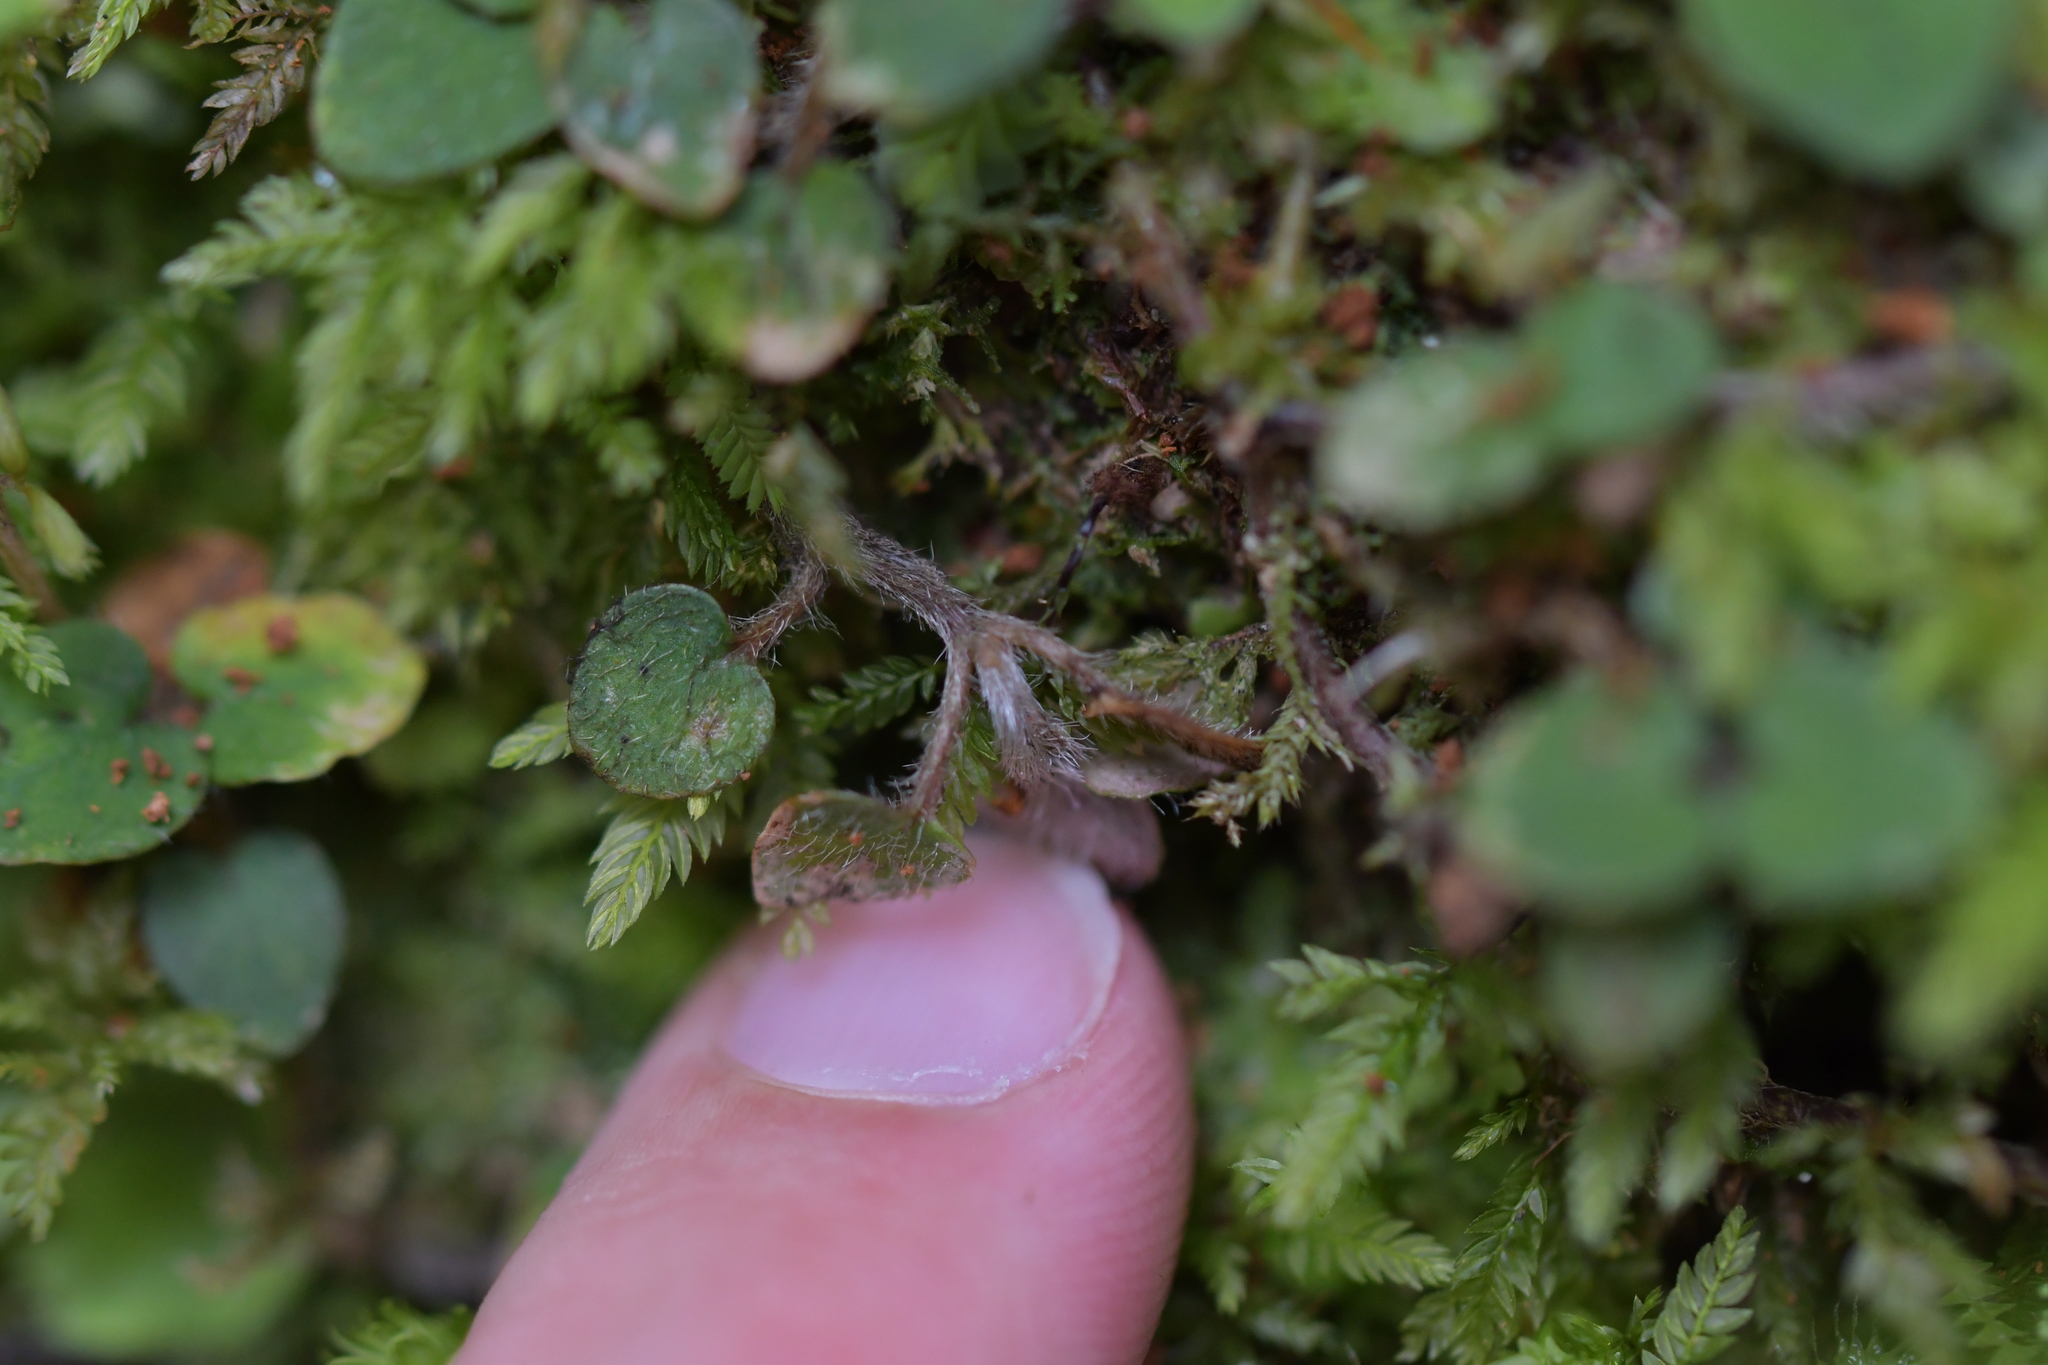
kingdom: Plantae
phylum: Tracheophyta
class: Magnoliopsida
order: Gentianales
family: Rubiaceae
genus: Nertera
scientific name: Nertera villosa
